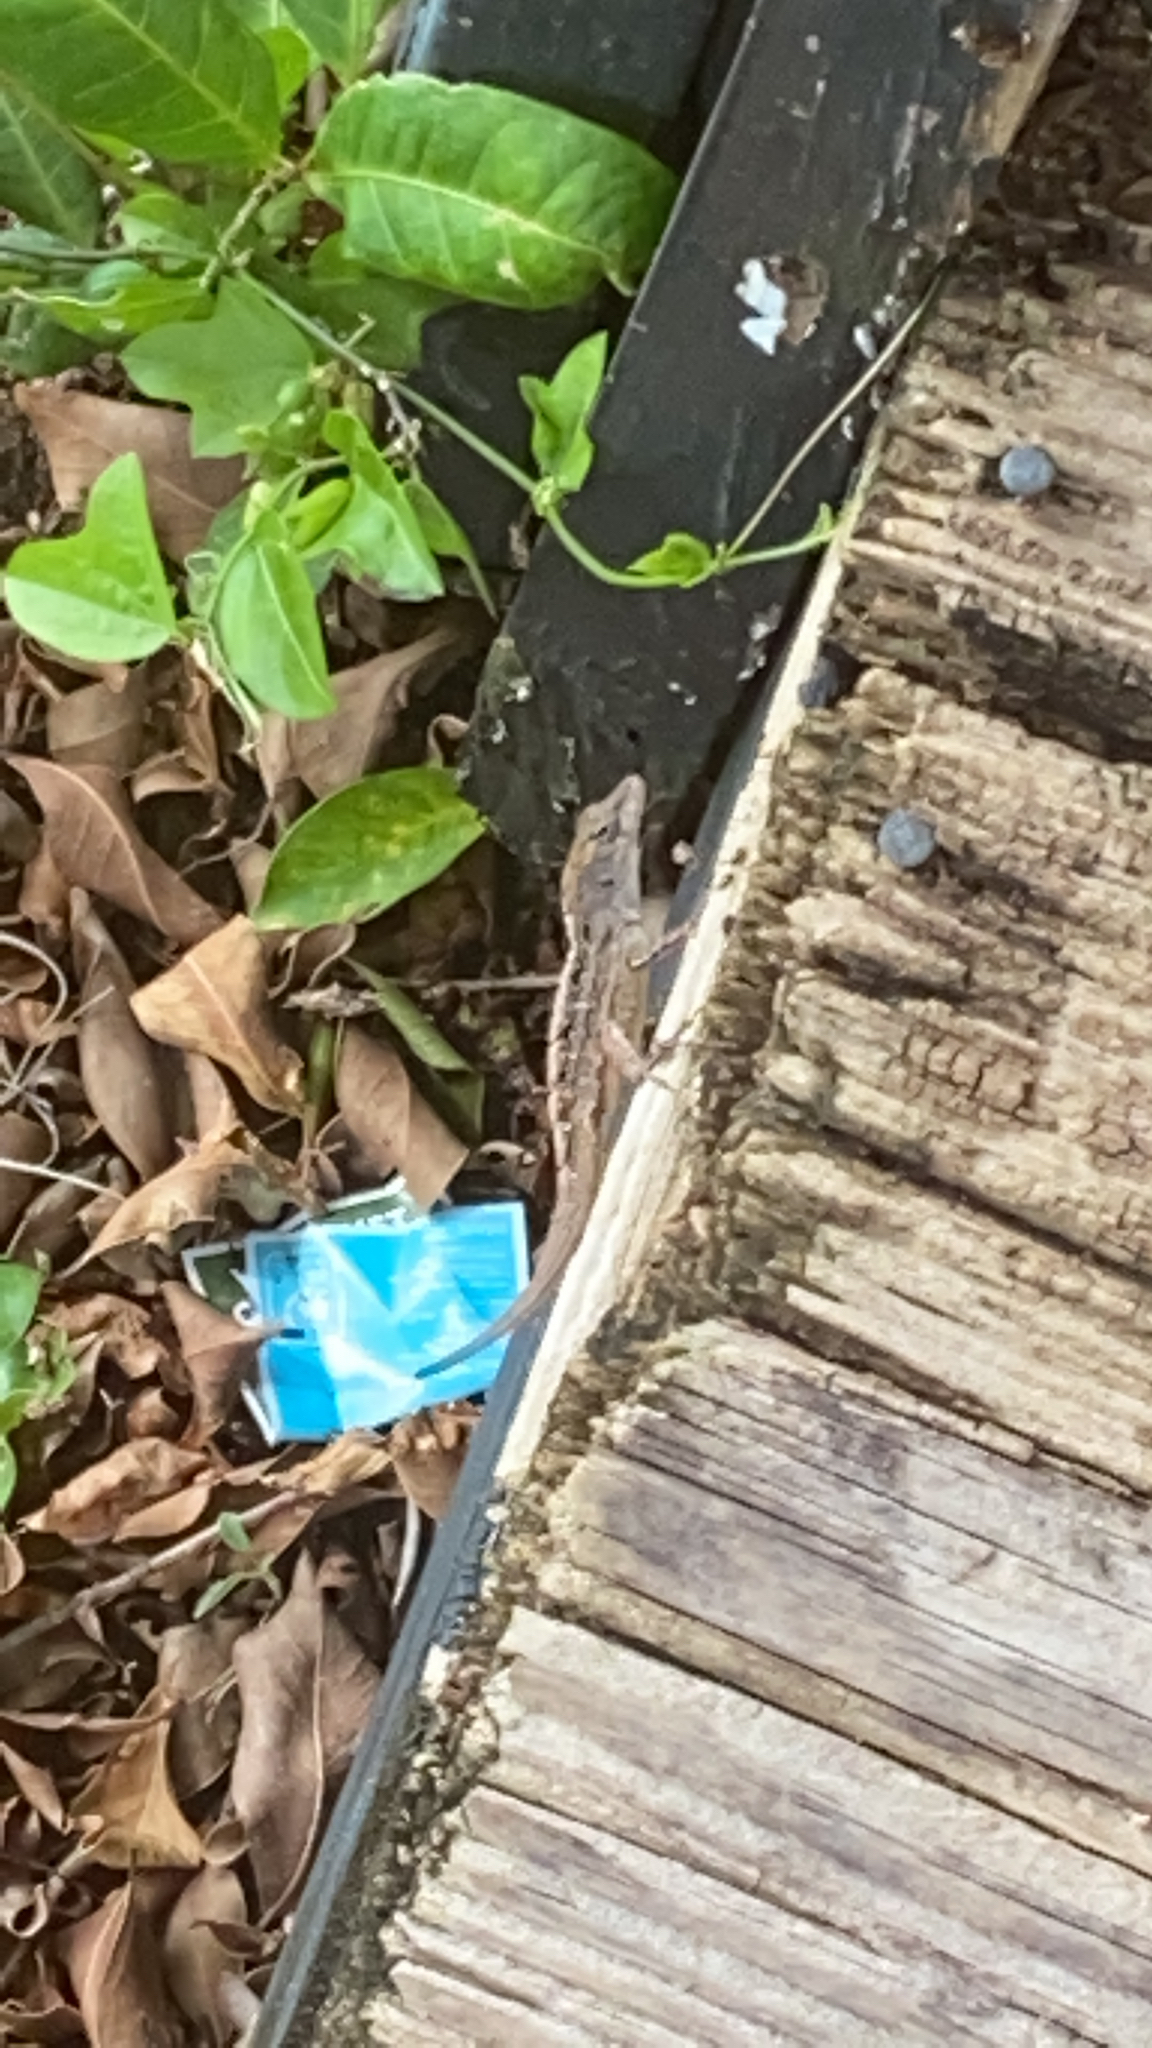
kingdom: Animalia
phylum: Chordata
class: Squamata
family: Dactyloidae
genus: Anolis
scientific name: Anolis sagrei
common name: Brown anole
